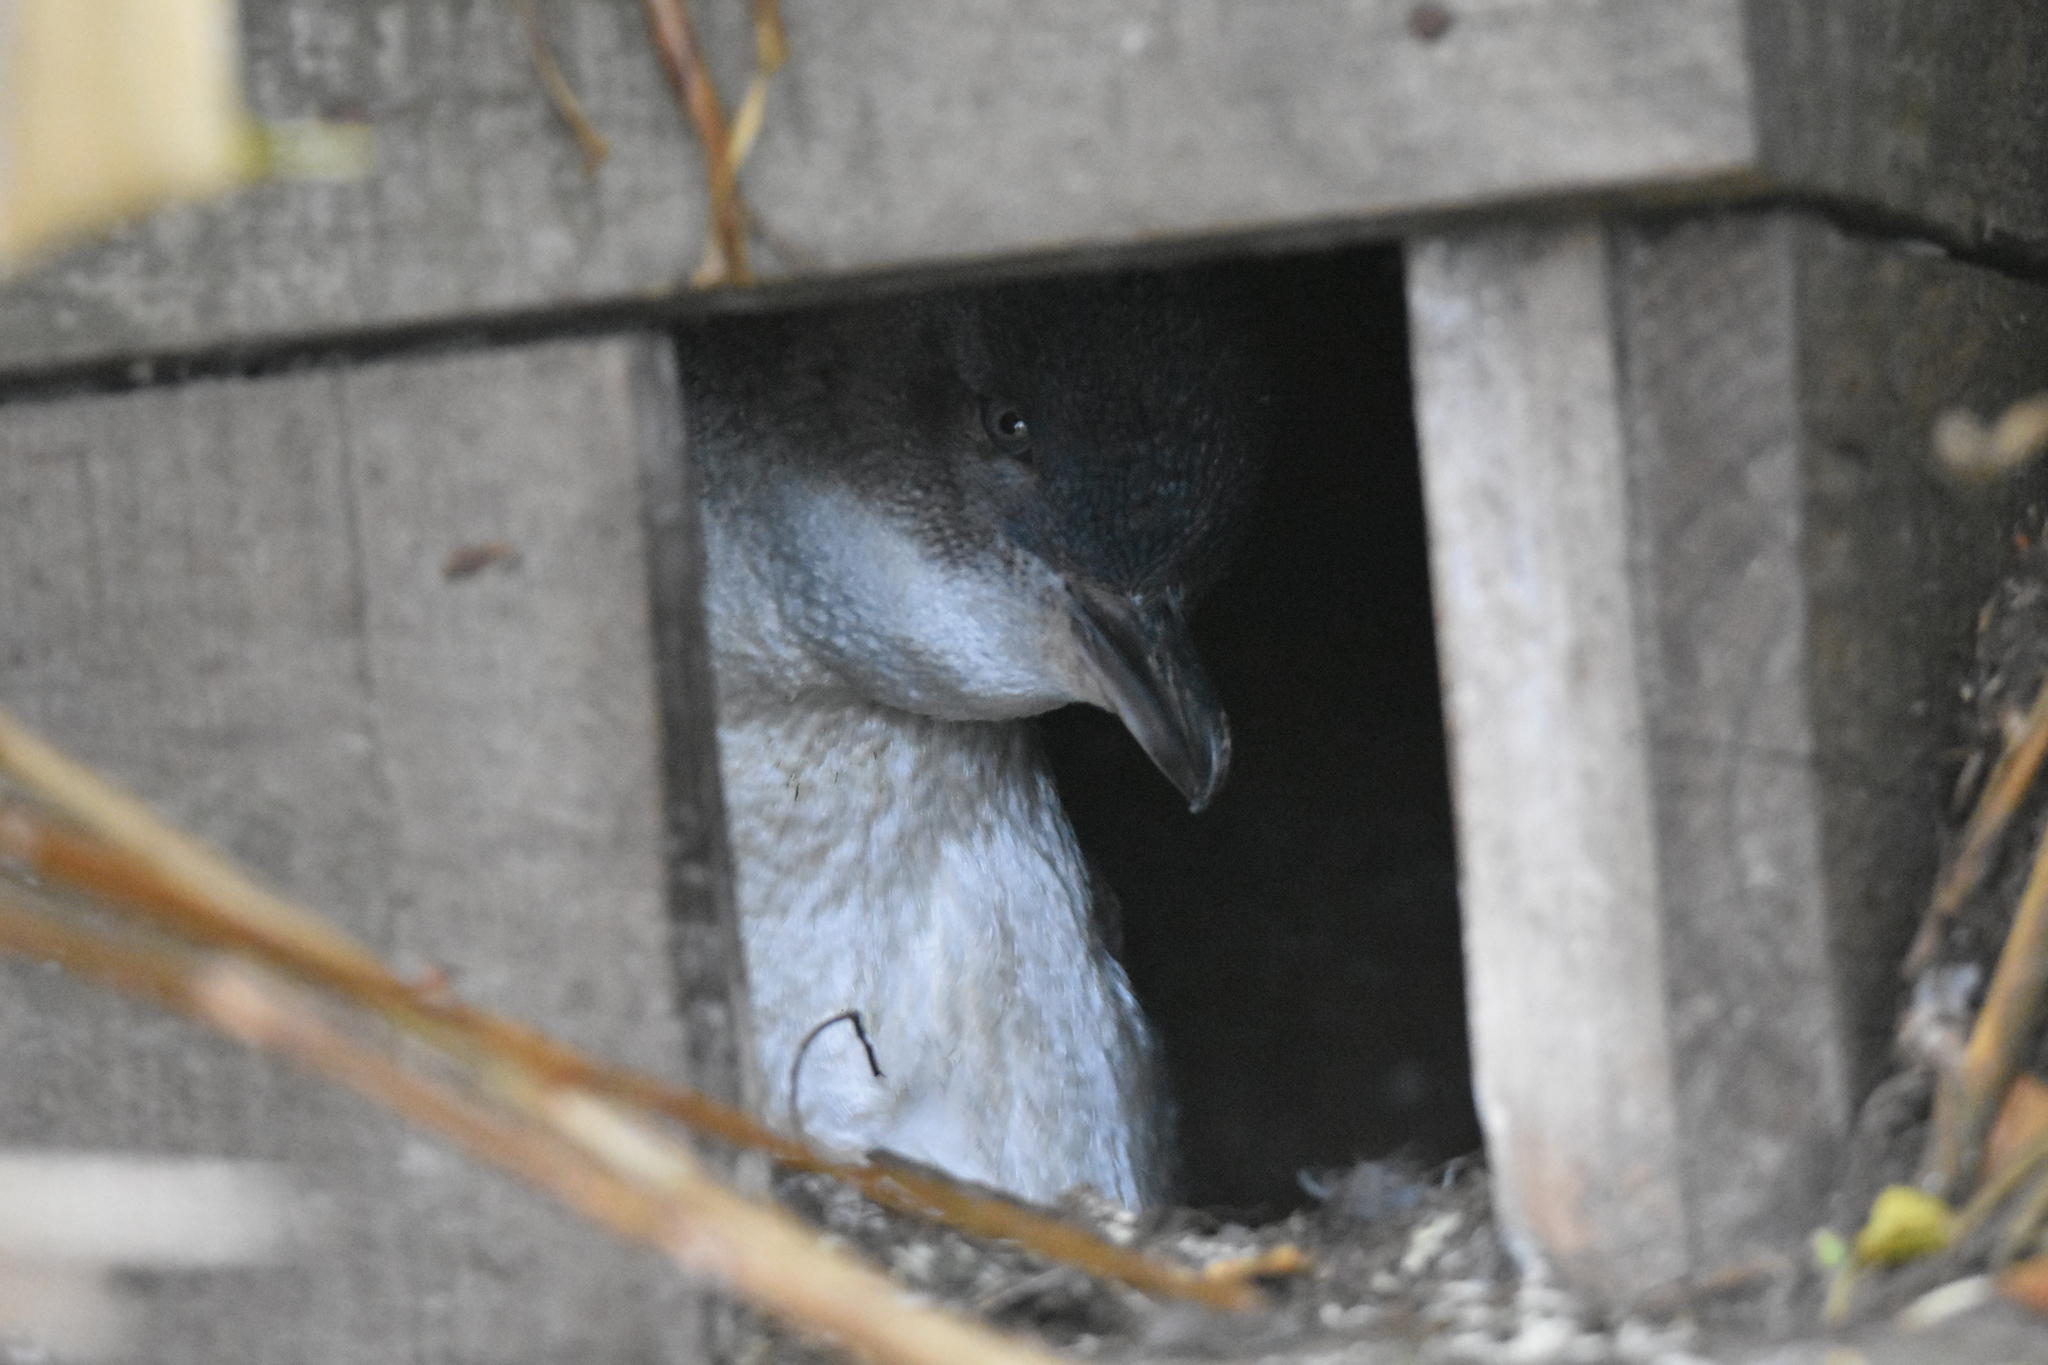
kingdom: Animalia
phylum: Chordata
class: Aves
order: Sphenisciformes
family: Spheniscidae
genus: Eudyptula
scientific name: Eudyptula minor
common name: Little penguin
